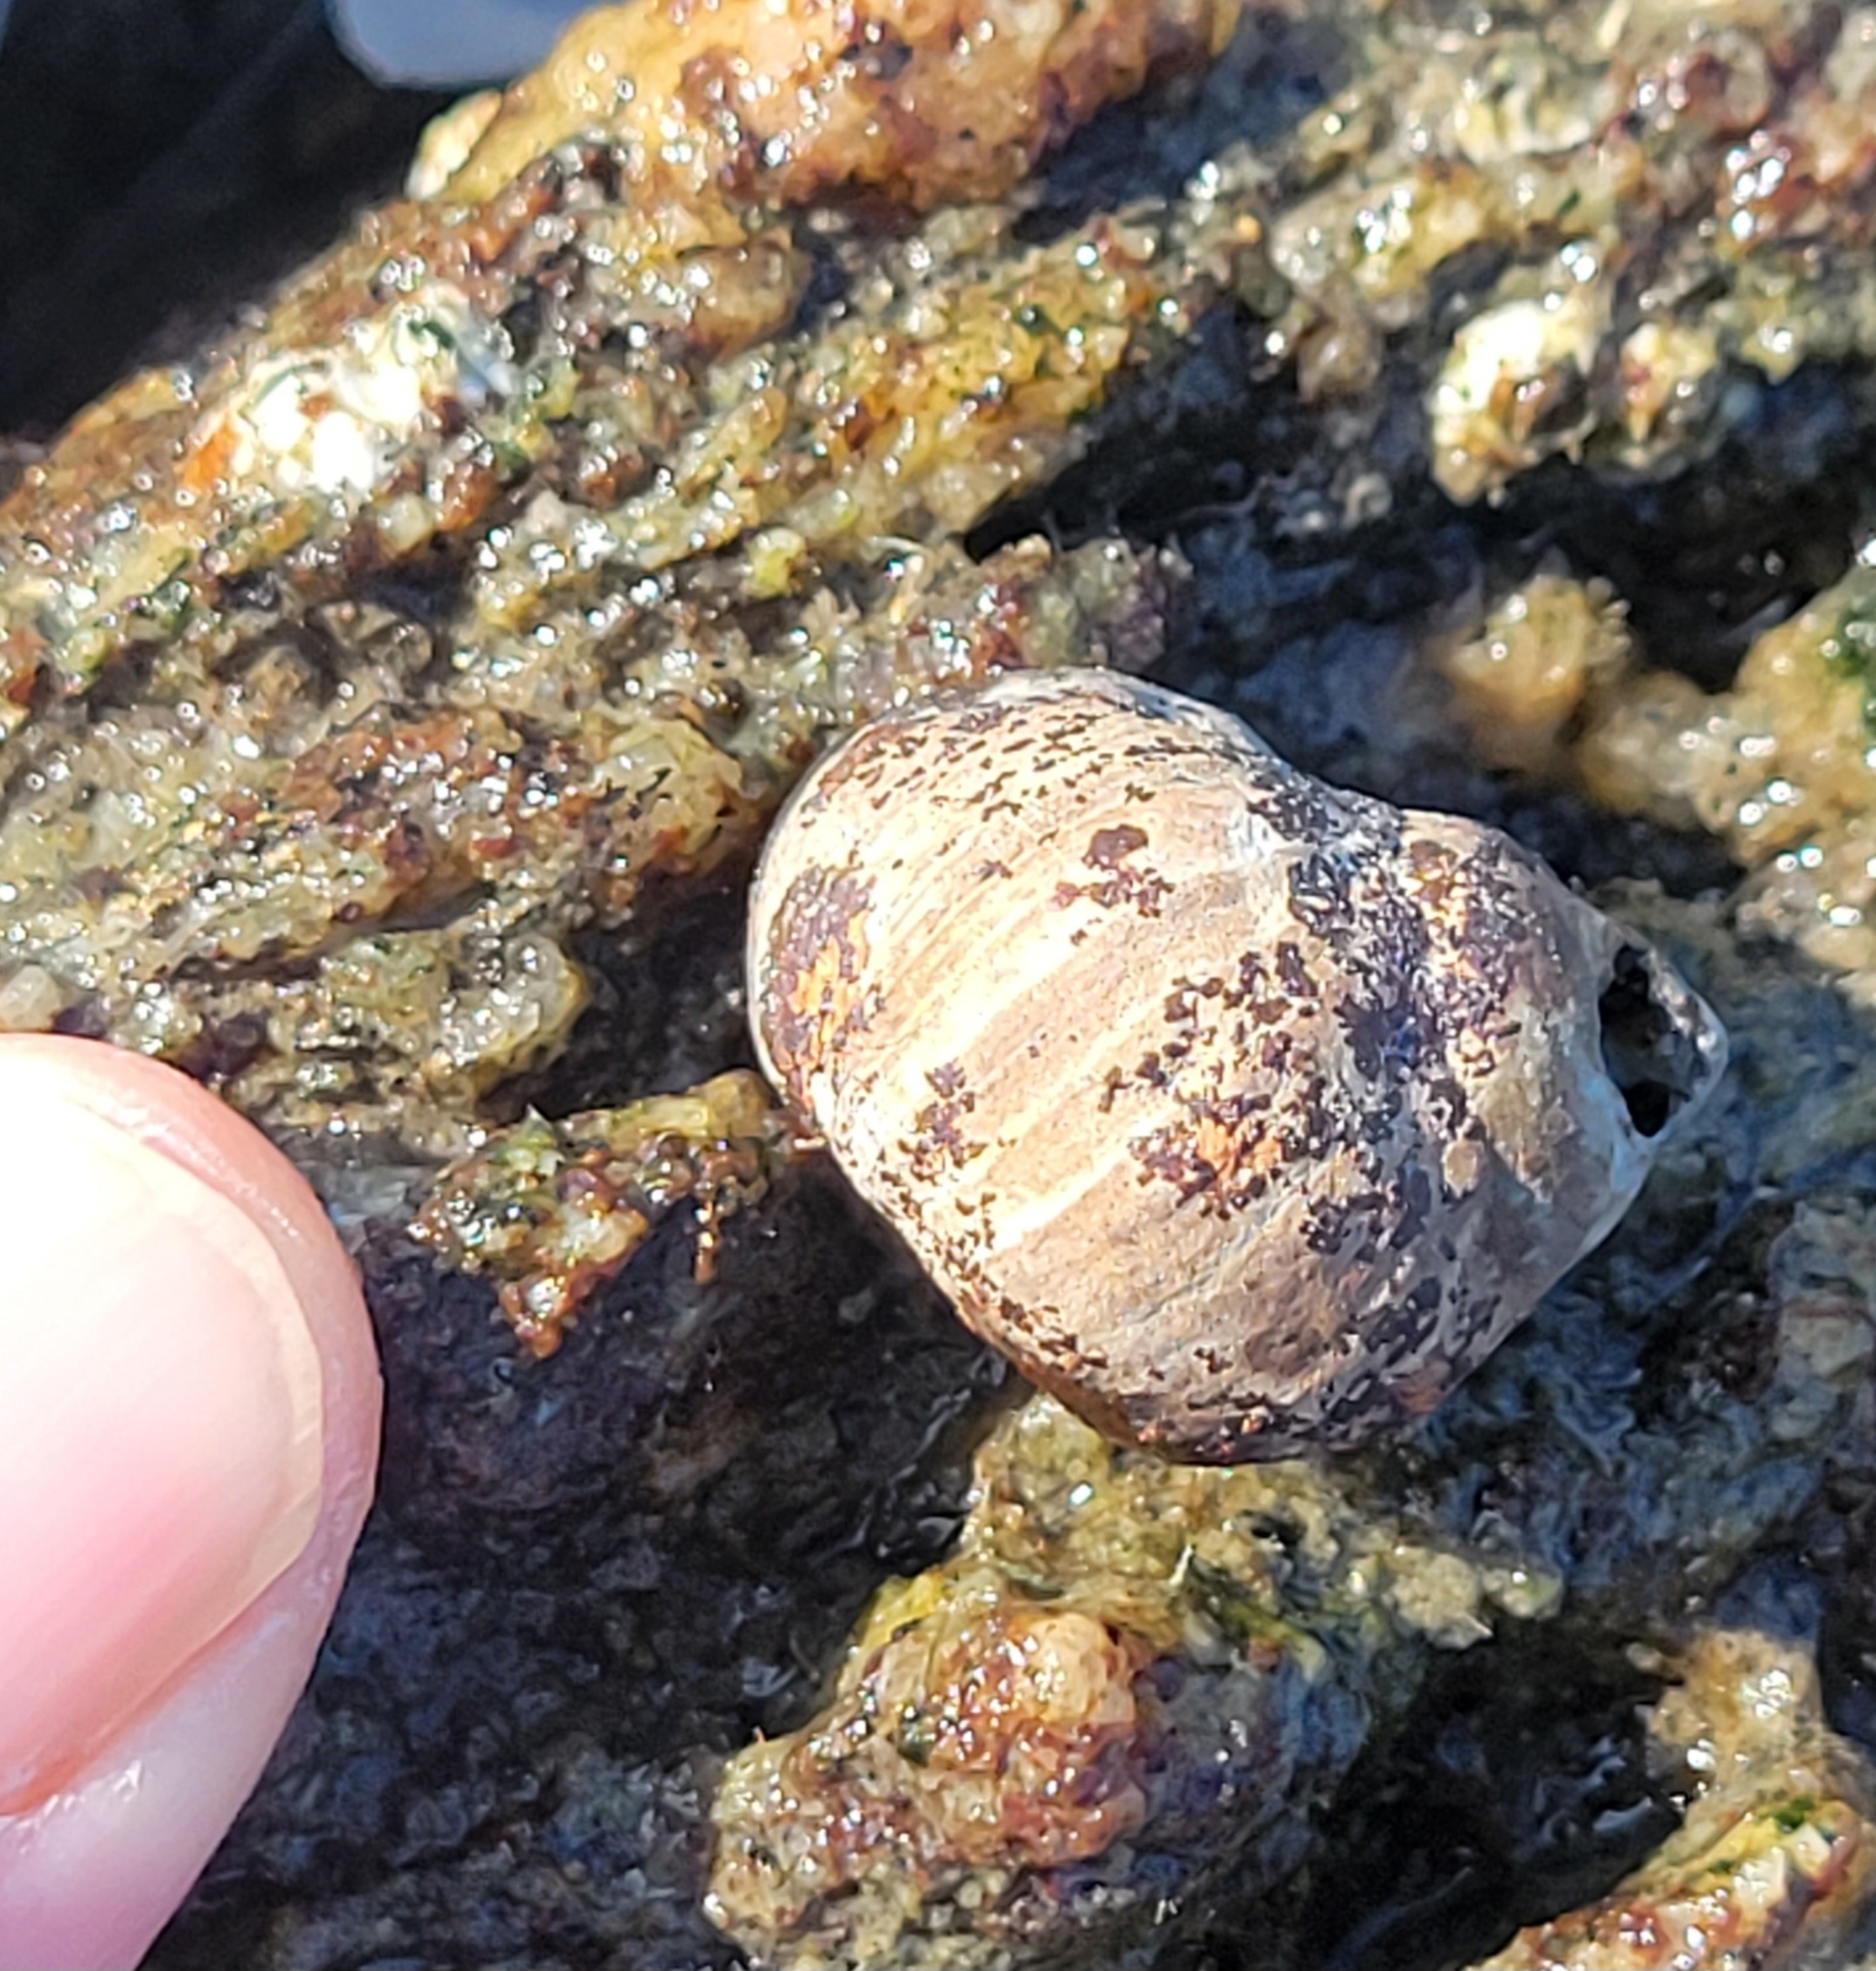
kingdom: Animalia
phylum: Mollusca
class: Gastropoda
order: Littorinimorpha
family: Littorinidae
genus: Littorina
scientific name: Littorina littorea
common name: Common periwinkle
